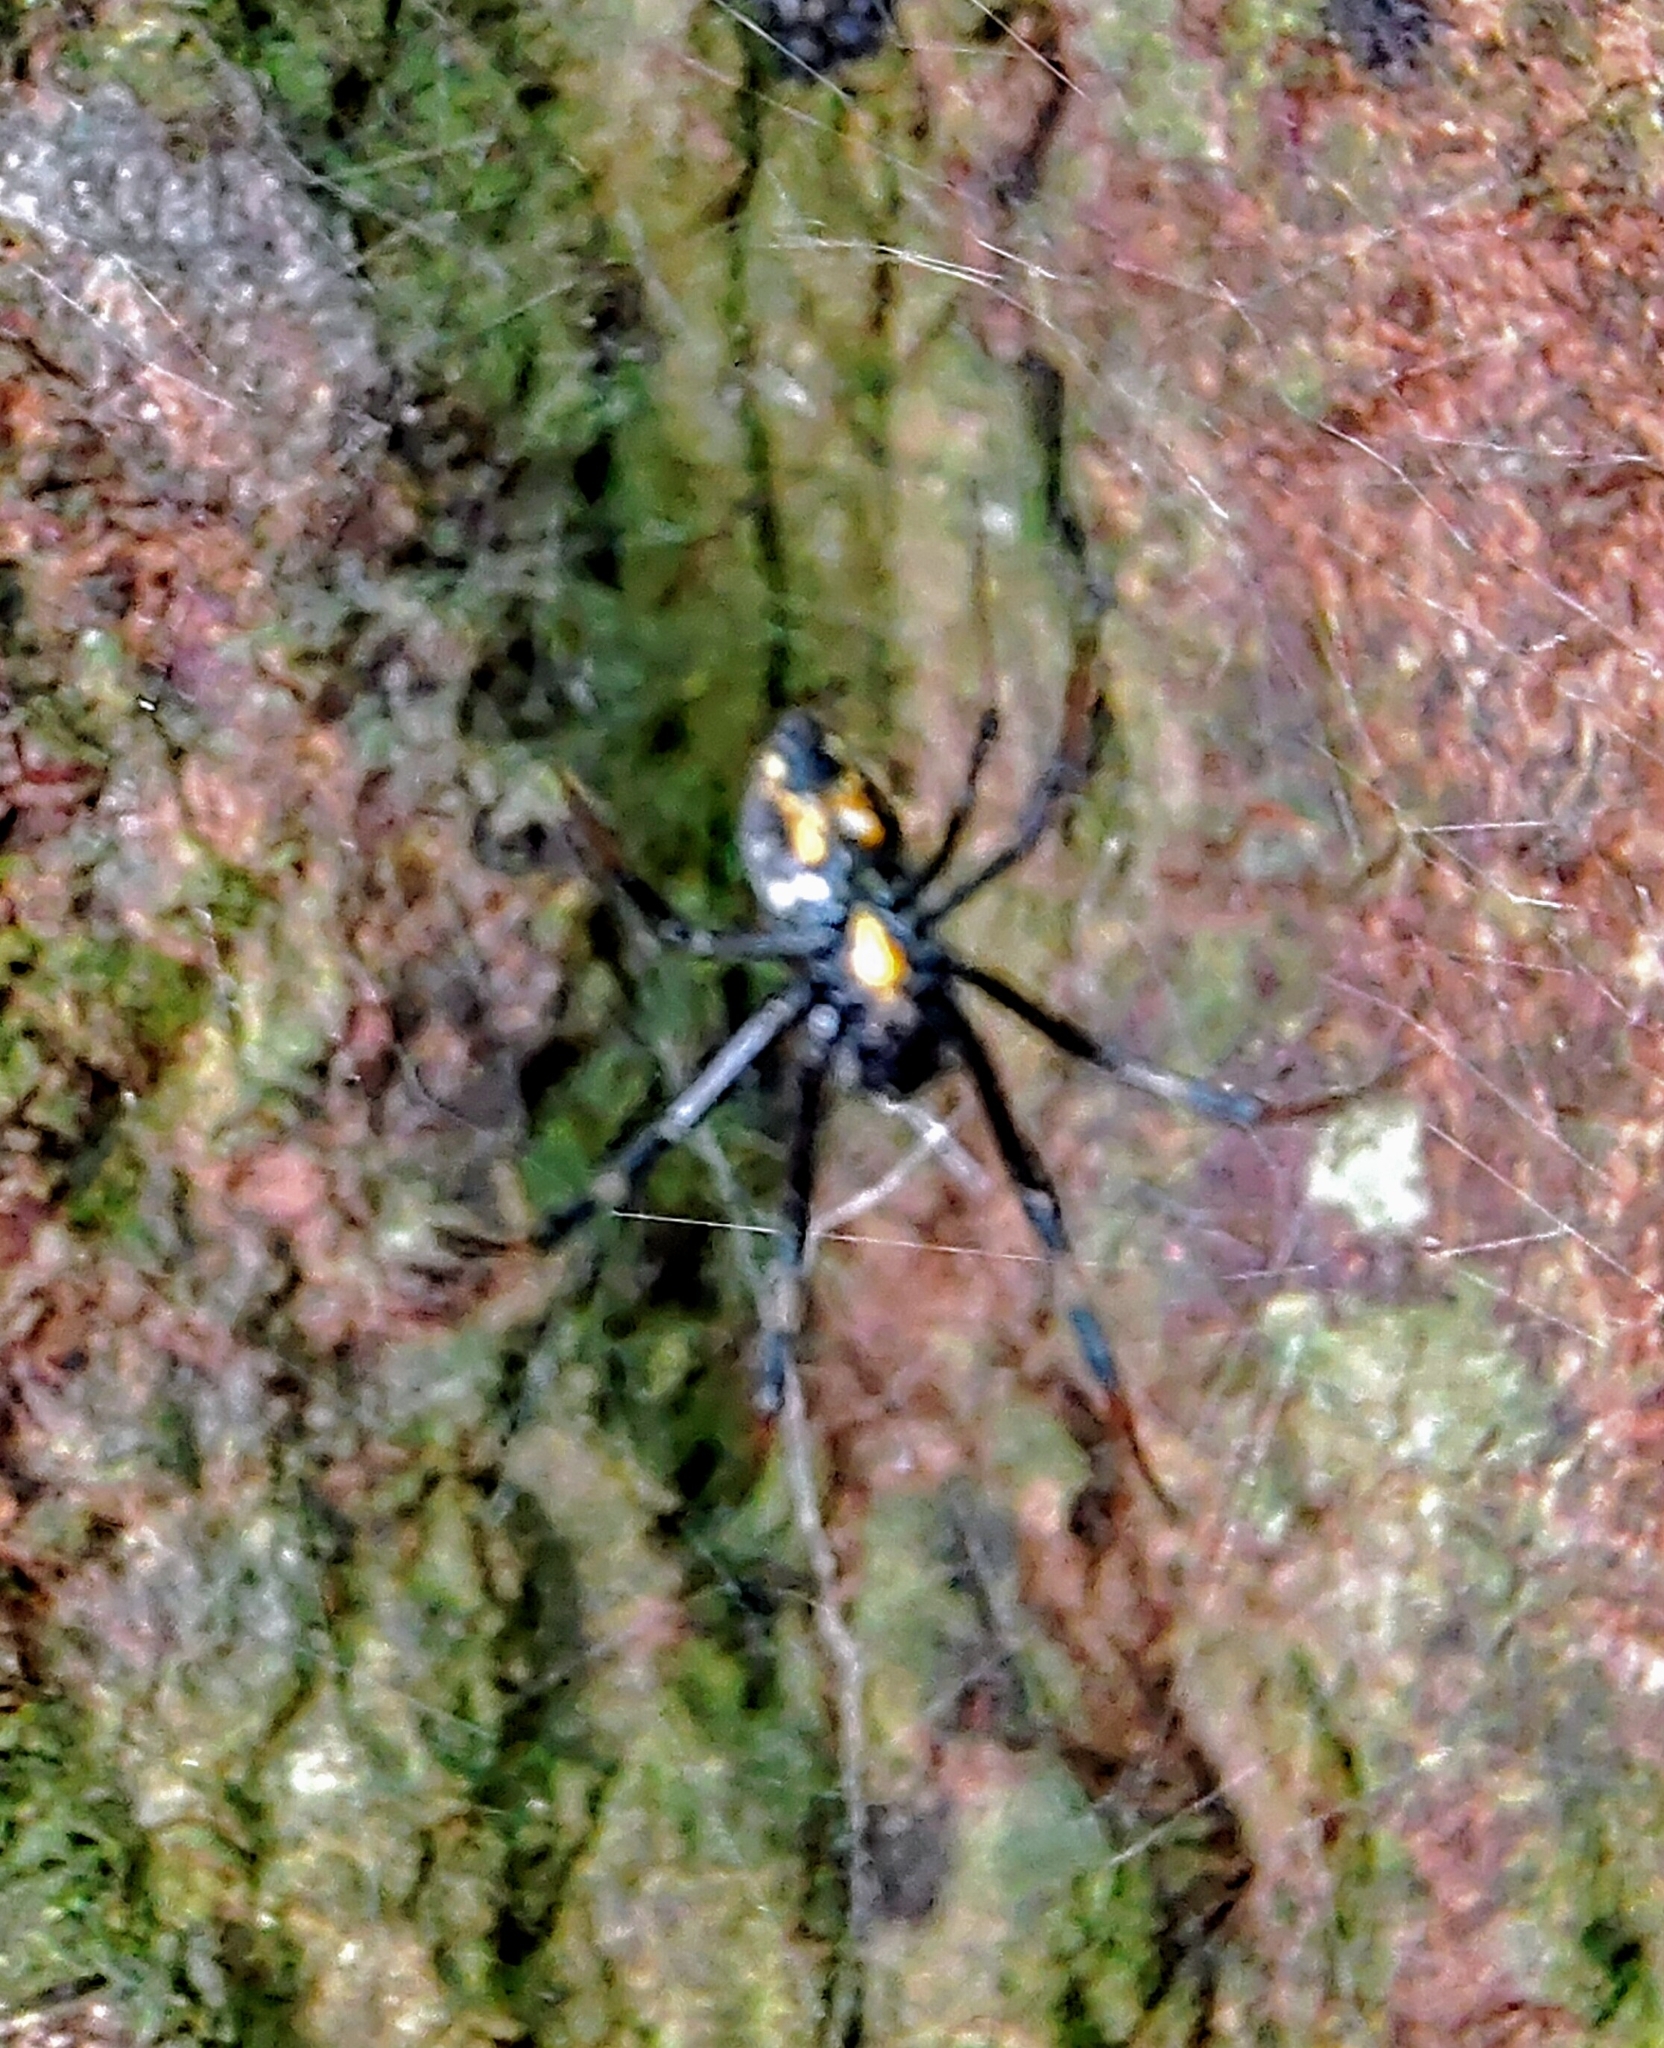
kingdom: Animalia
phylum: Arthropoda
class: Arachnida
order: Araneae
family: Araneidae
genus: Nephilengys
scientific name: Nephilengys malabarensis
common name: Asian hermit spider
